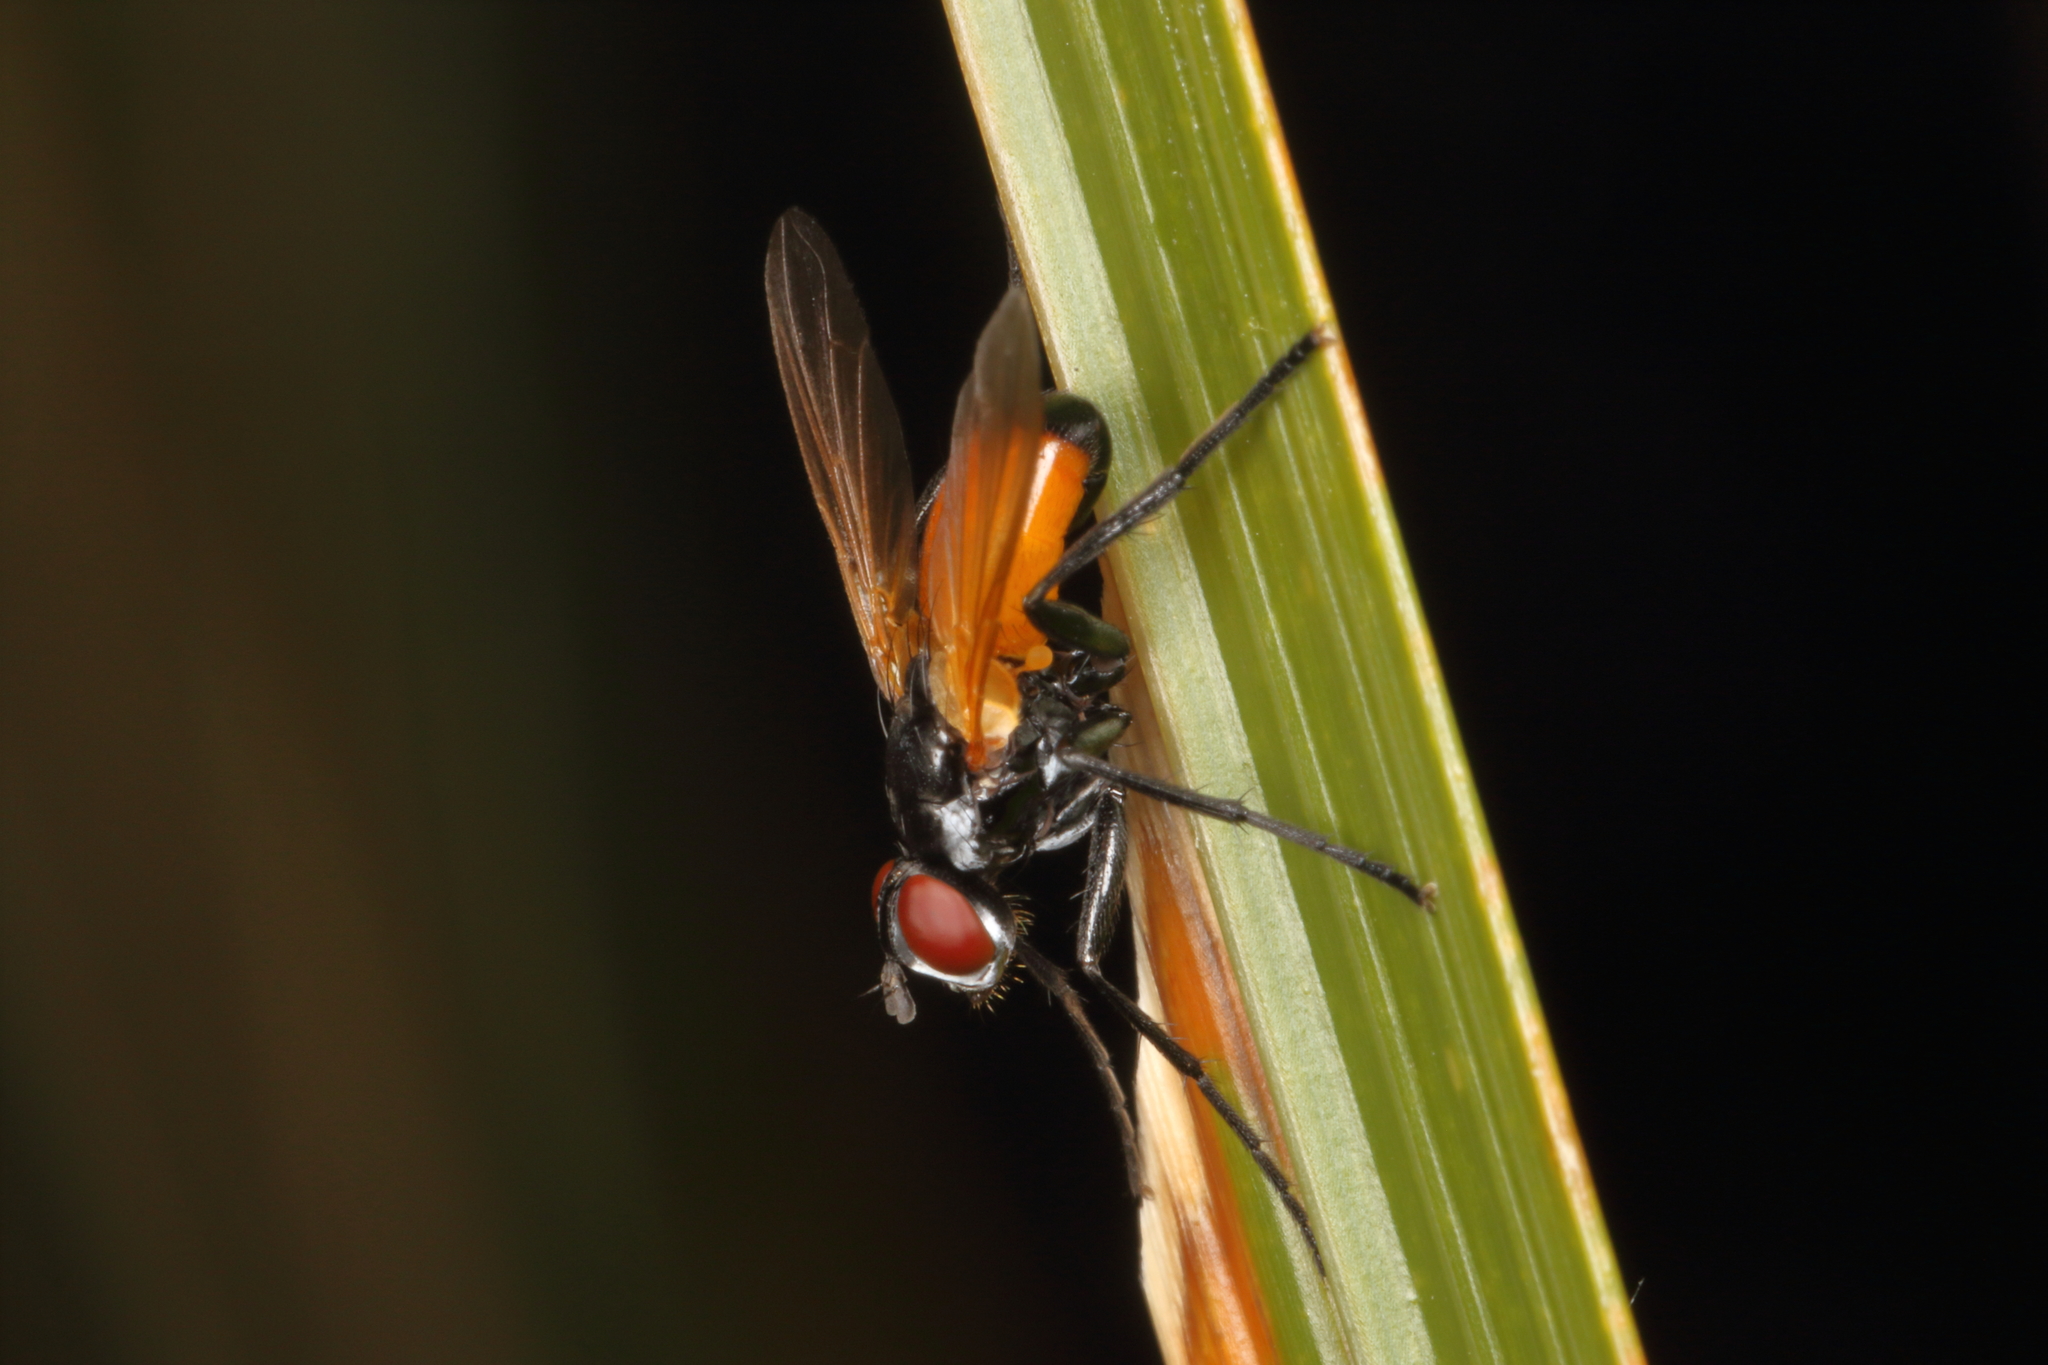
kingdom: Animalia
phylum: Arthropoda
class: Insecta
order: Diptera
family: Tachinidae
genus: Huttonobesseria
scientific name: Huttonobesseria verecunda
